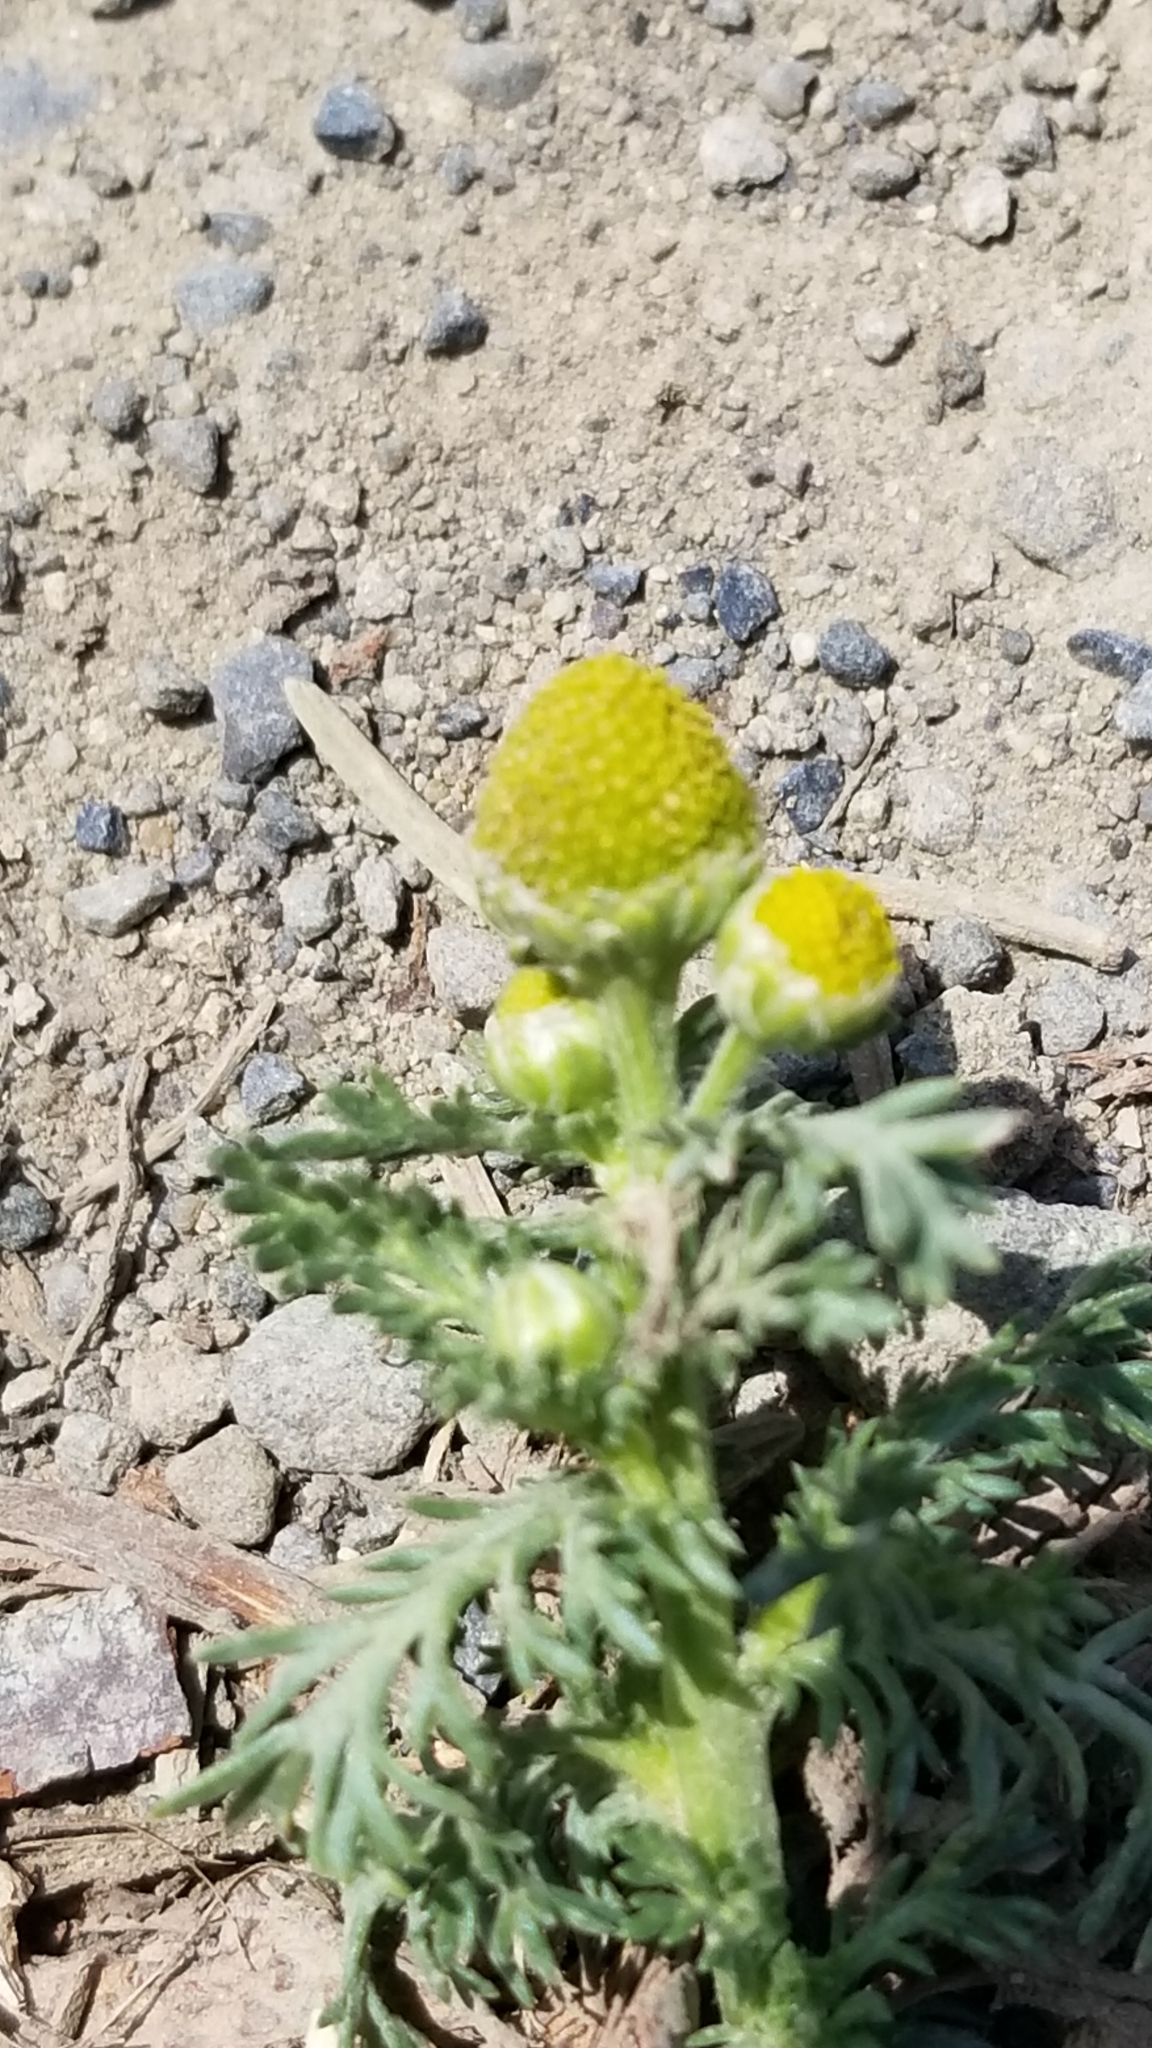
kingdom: Plantae
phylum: Tracheophyta
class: Magnoliopsida
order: Asterales
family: Asteraceae
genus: Matricaria
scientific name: Matricaria discoidea
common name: Disc mayweed
